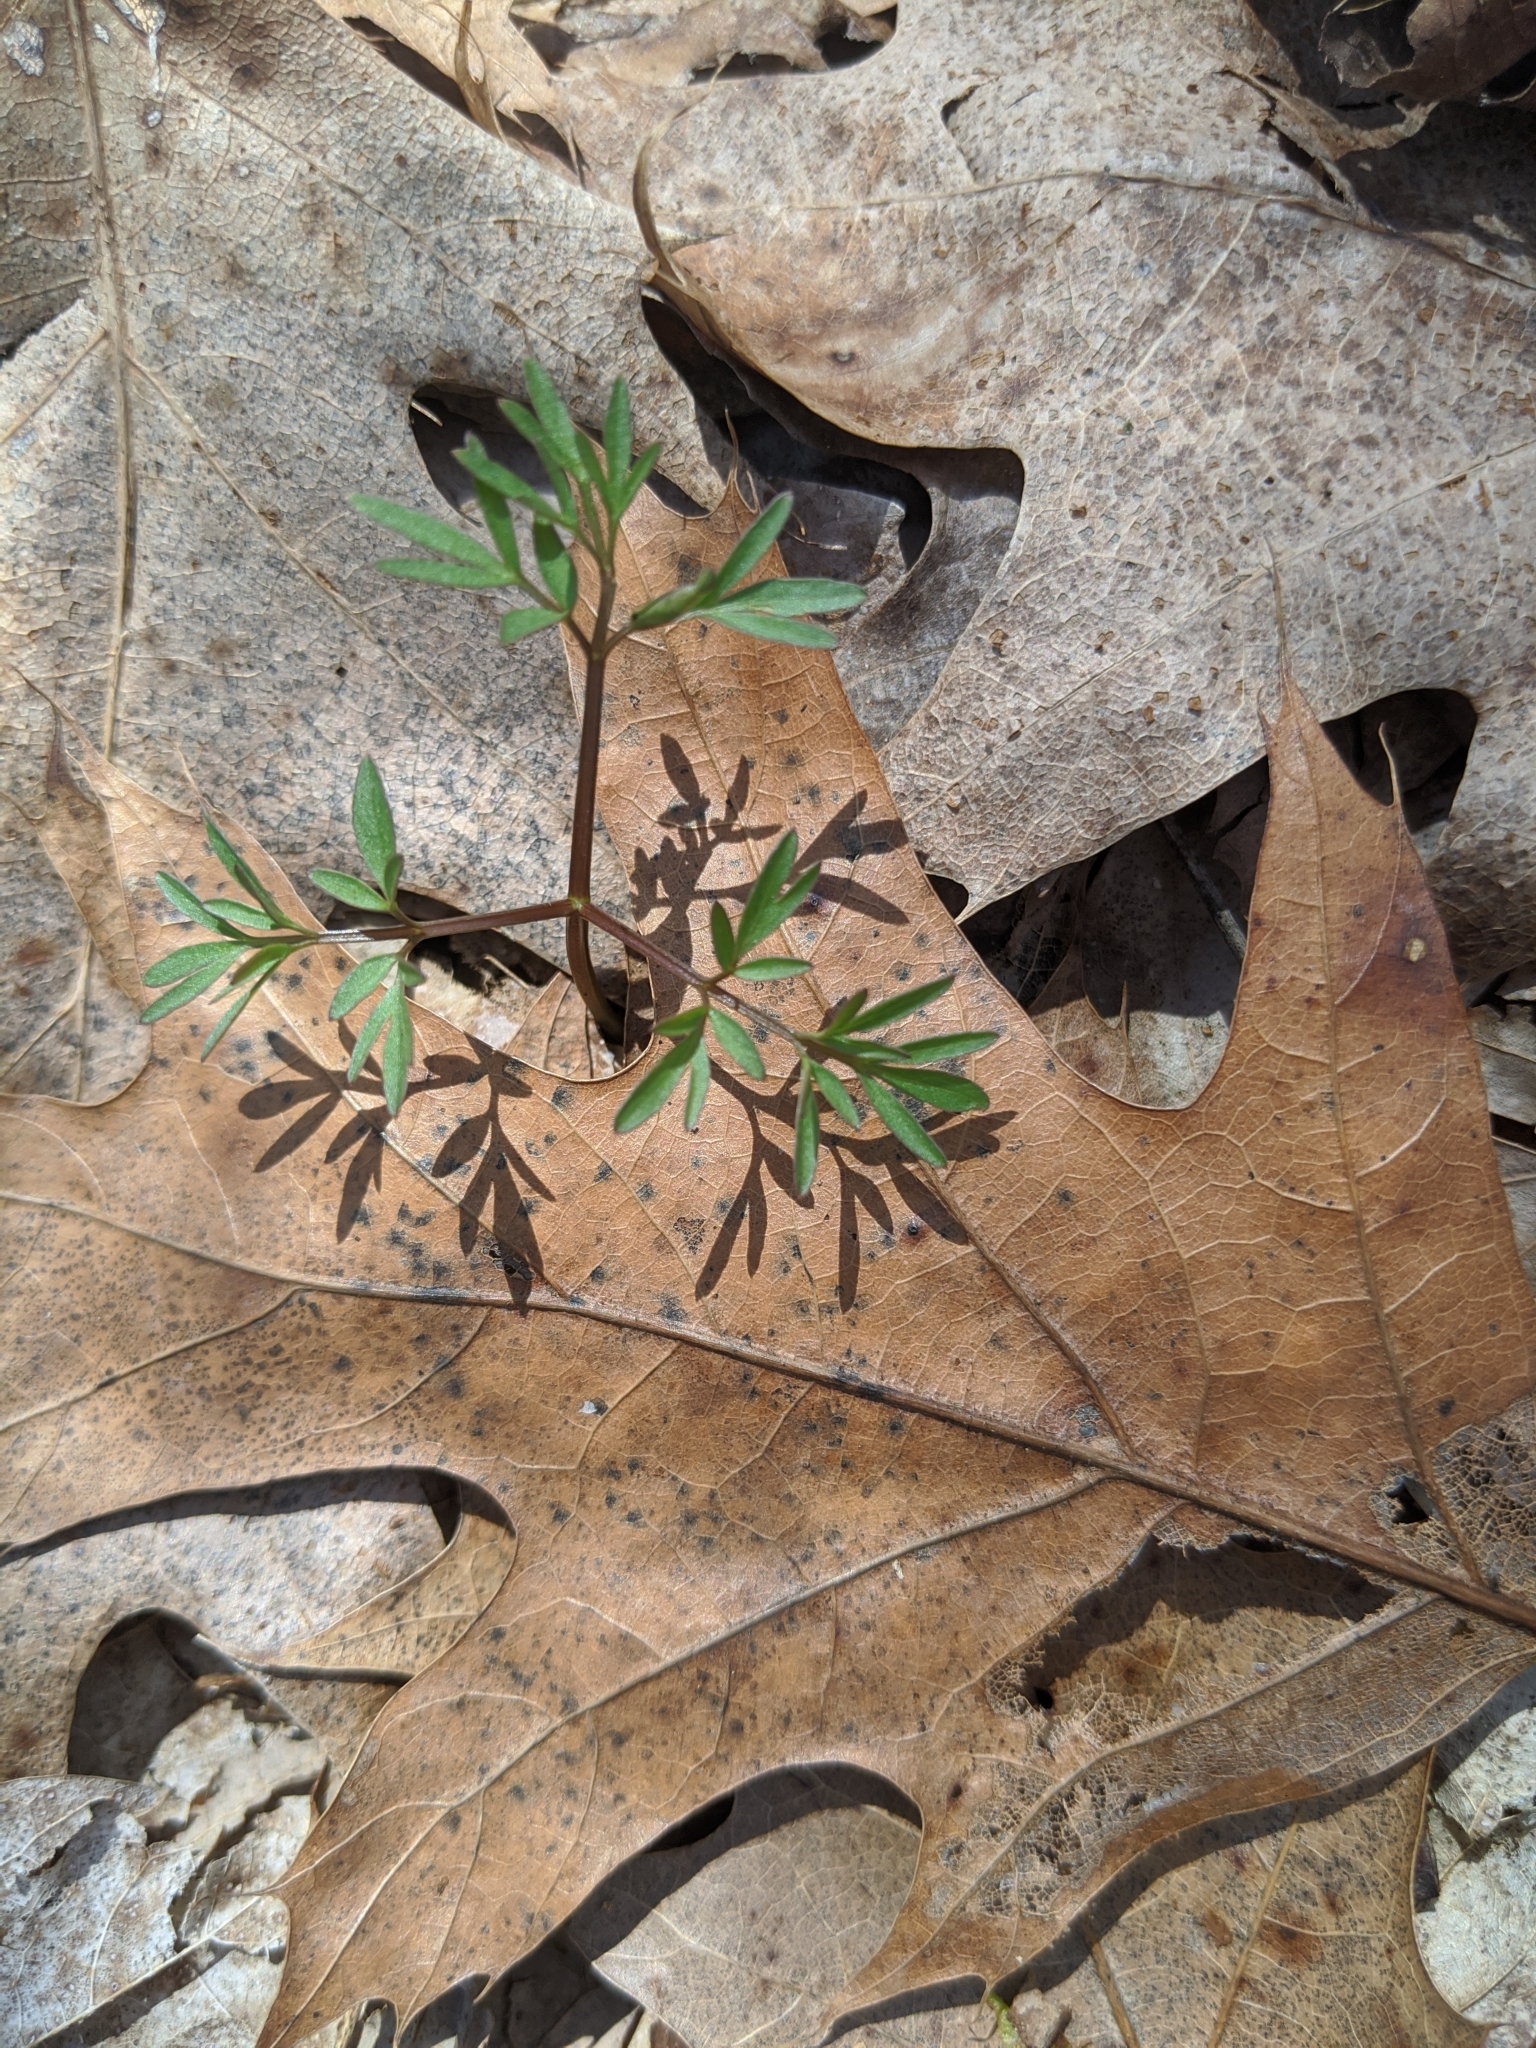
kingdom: Plantae
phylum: Tracheophyta
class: Magnoliopsida
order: Apiales
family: Apiaceae
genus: Erigenia
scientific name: Erigenia bulbosa
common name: Pepper-and-salt
